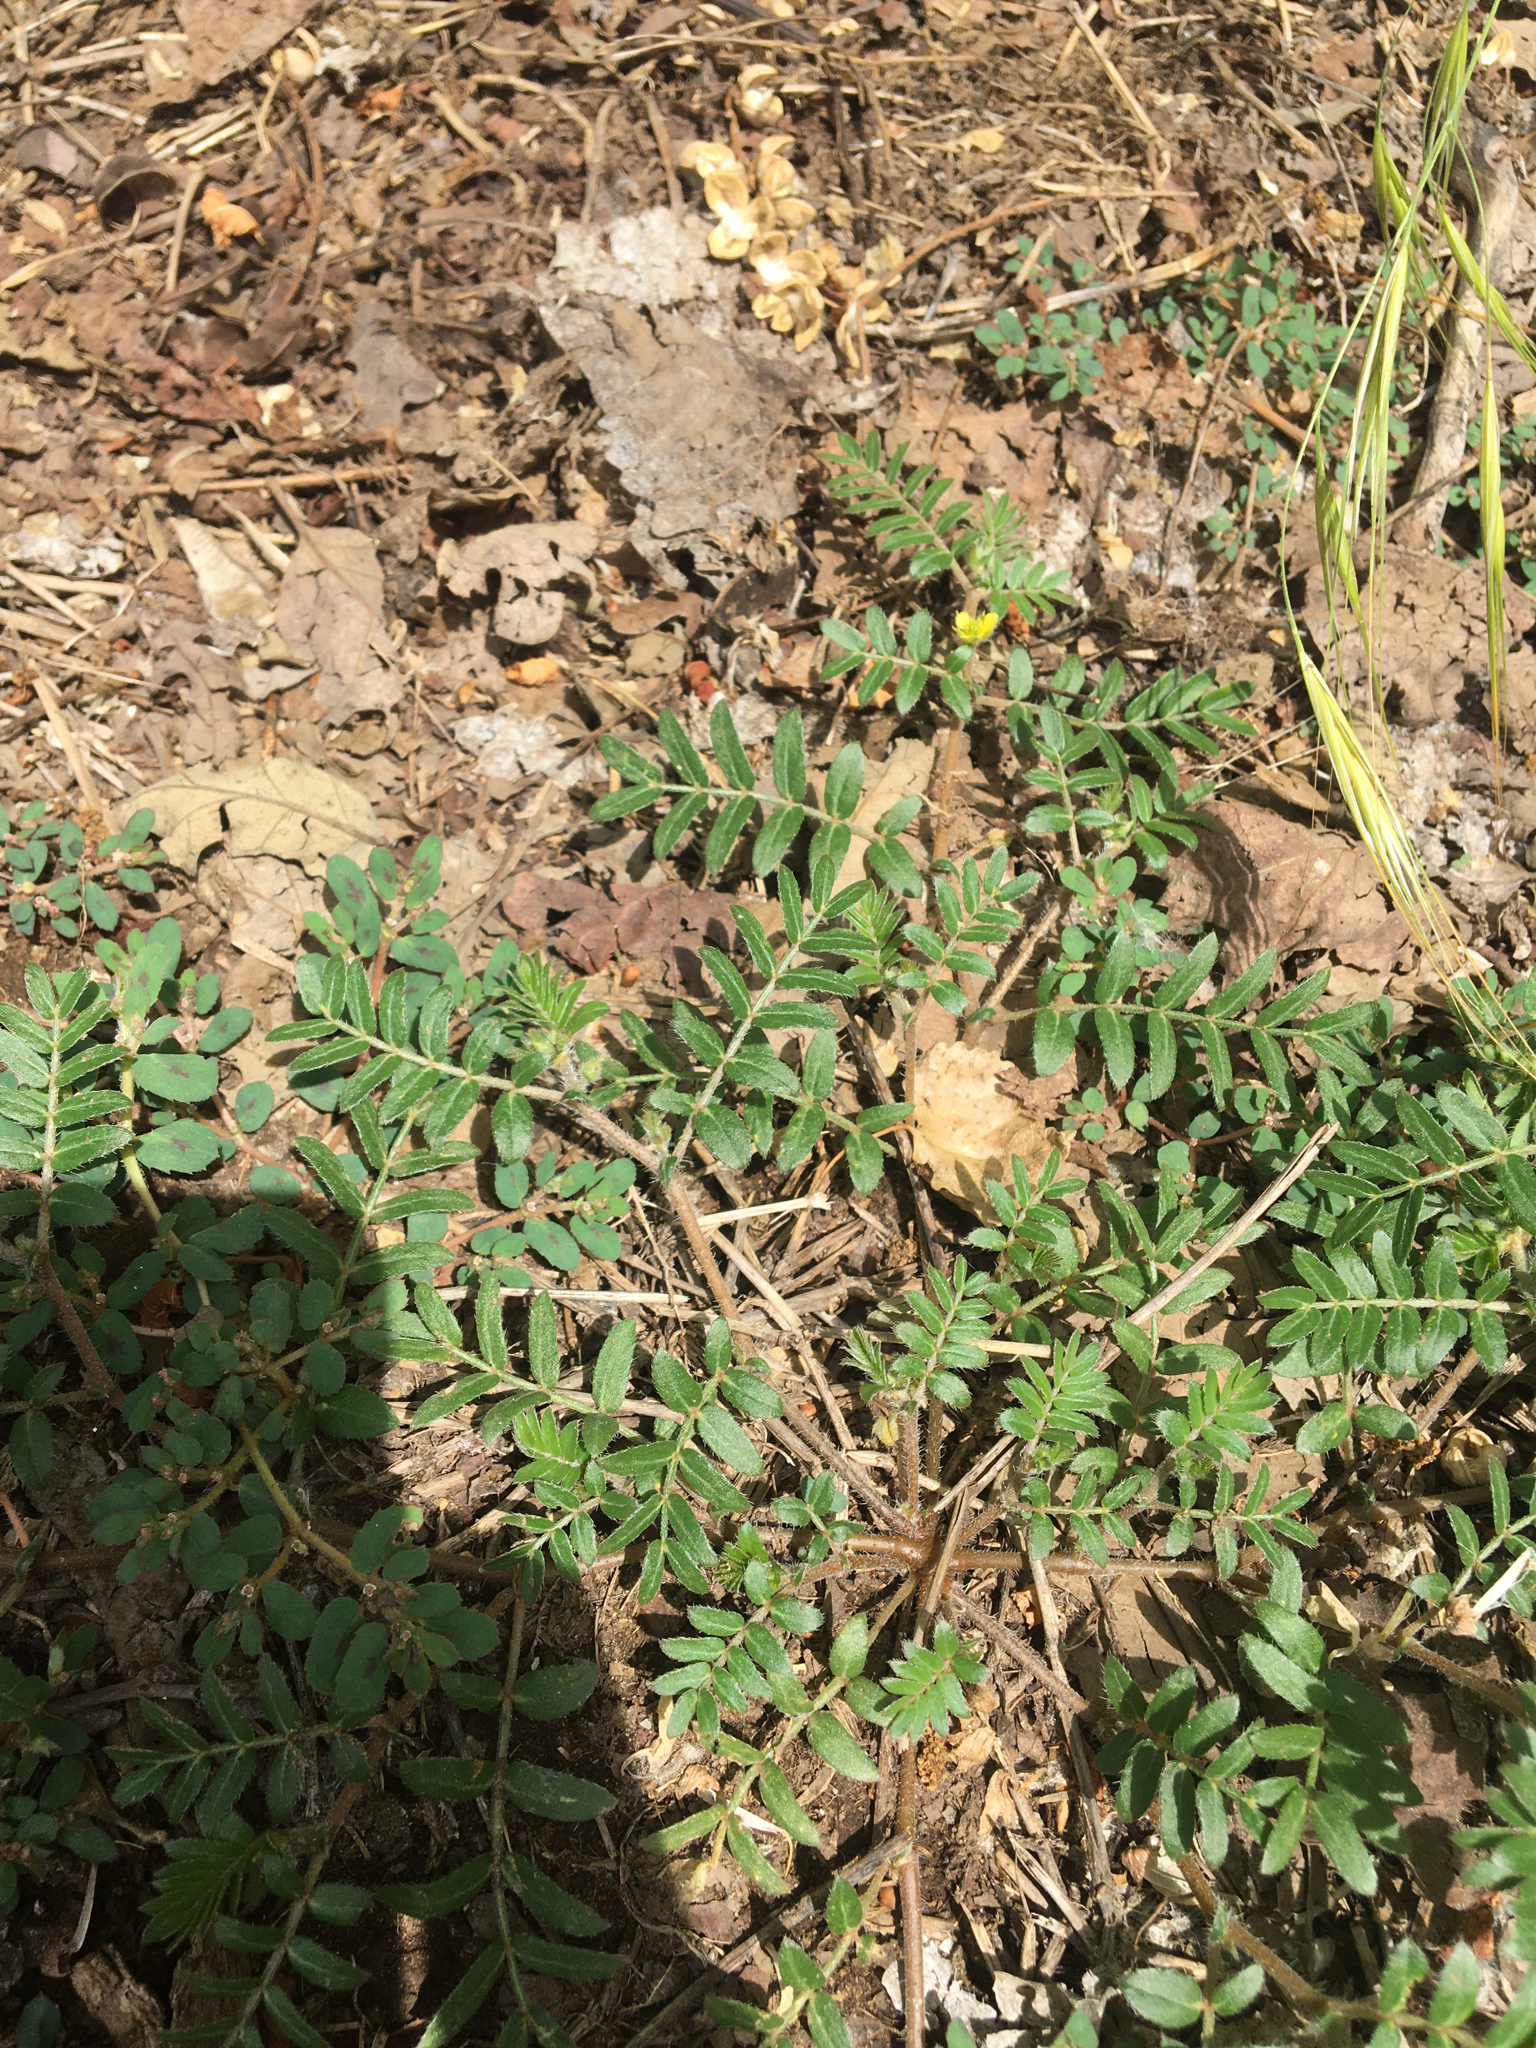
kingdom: Plantae
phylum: Tracheophyta
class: Magnoliopsida
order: Zygophyllales
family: Zygophyllaceae
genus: Tribulus
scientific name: Tribulus terrestris
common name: Puncturevine
